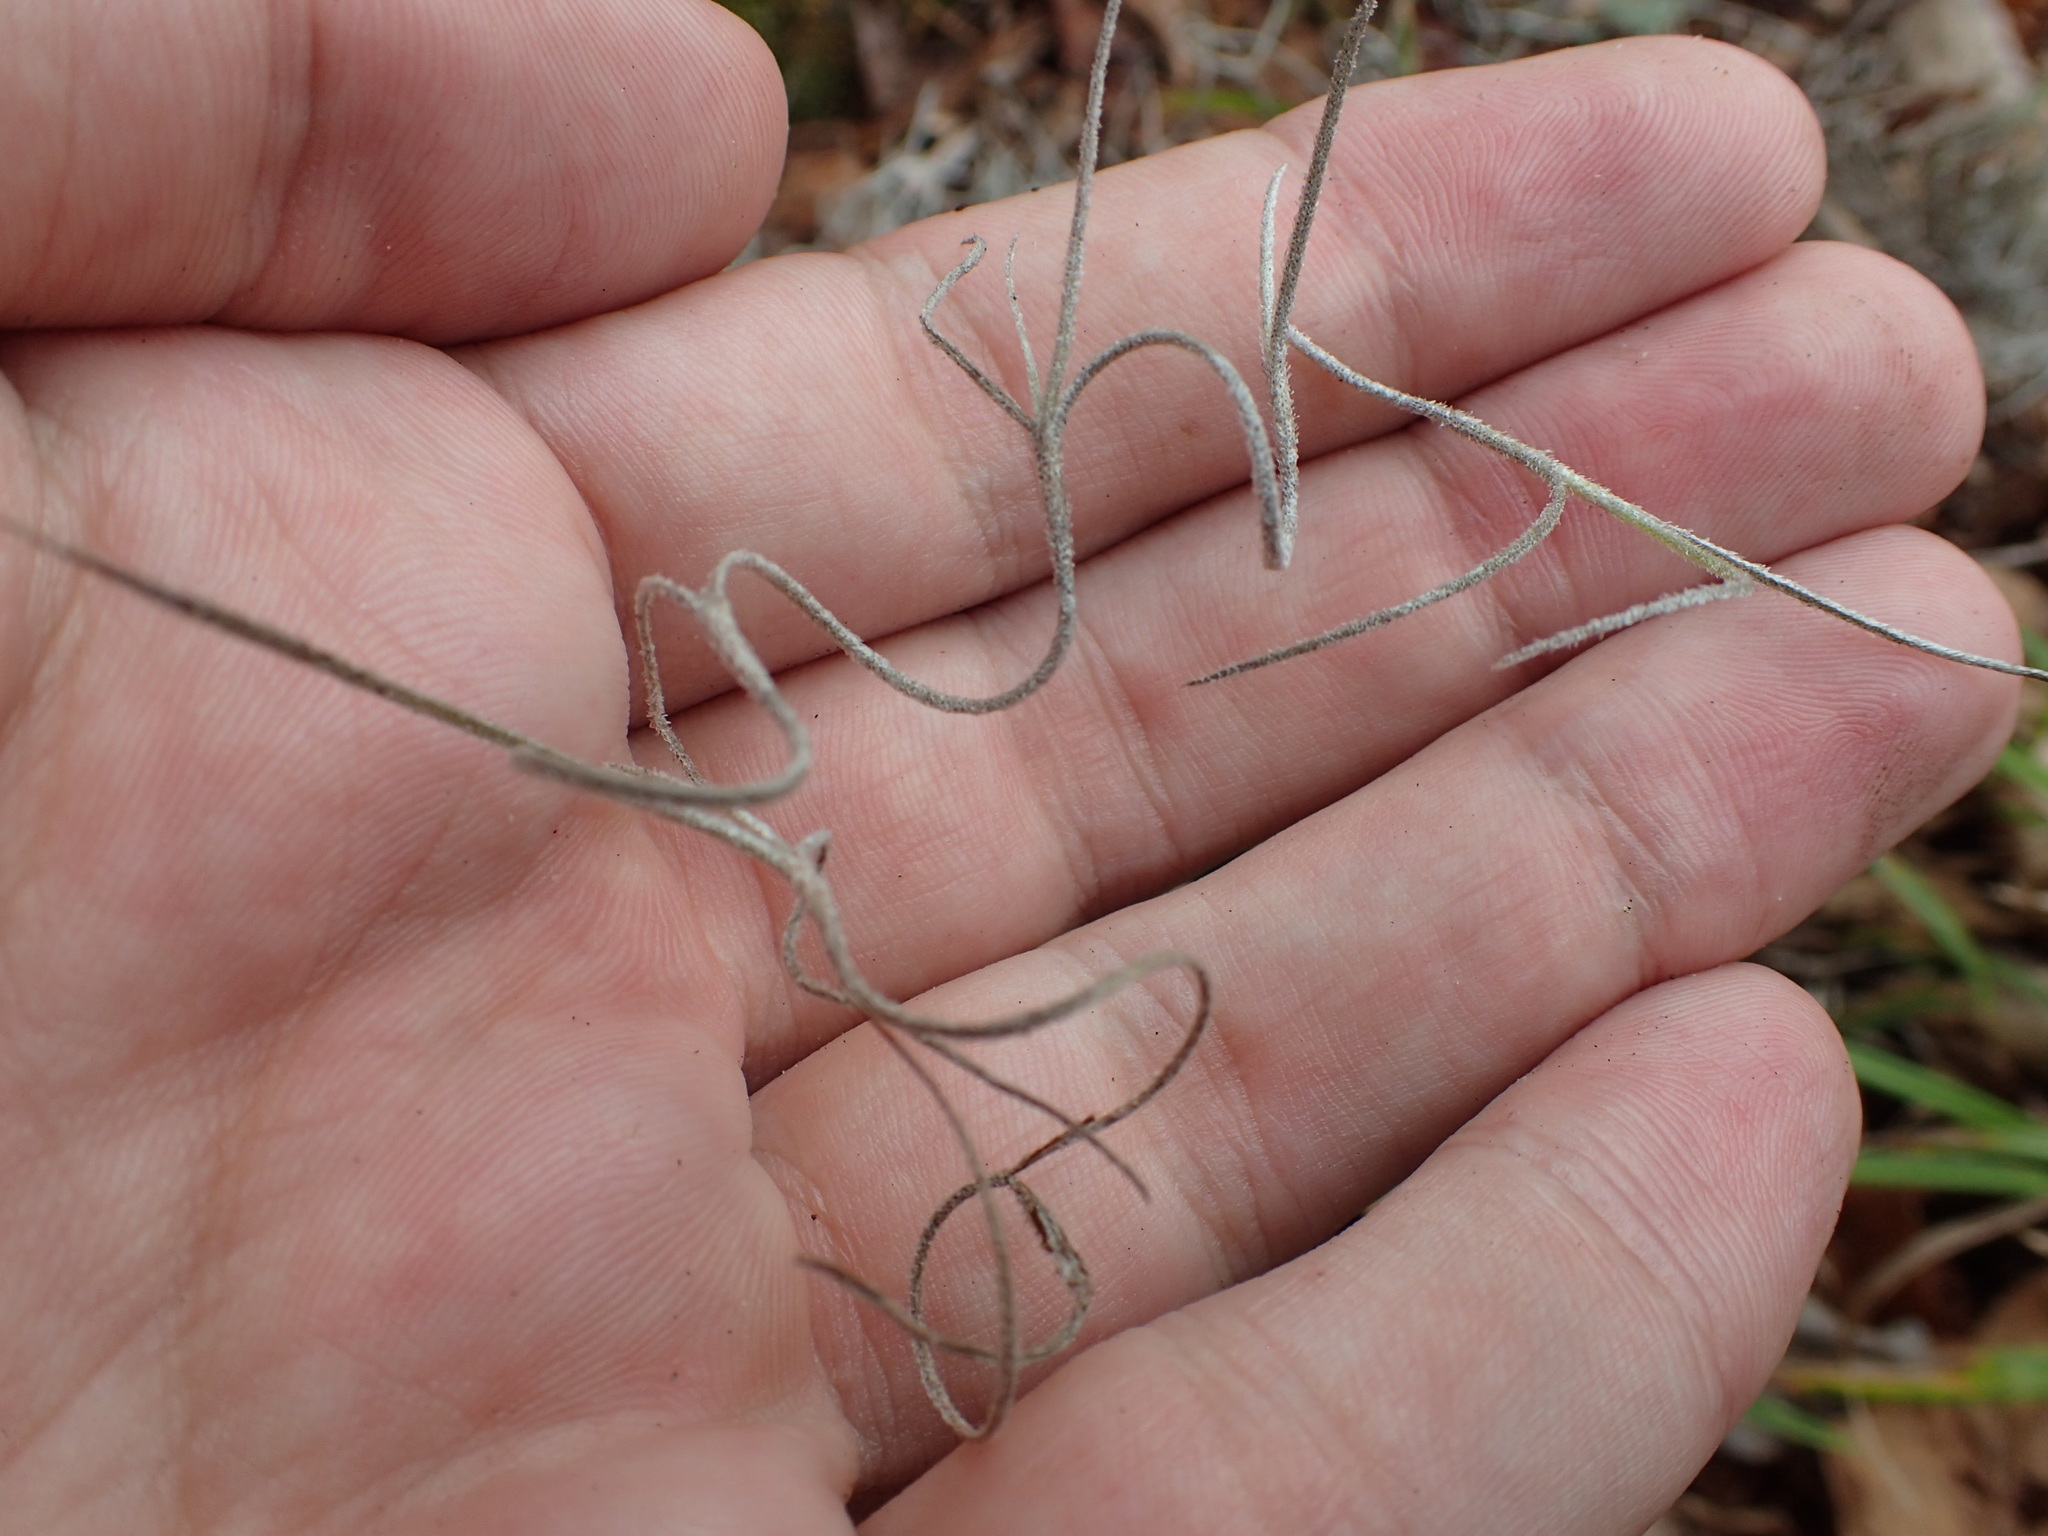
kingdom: Plantae
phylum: Tracheophyta
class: Liliopsida
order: Poales
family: Bromeliaceae
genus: Tillandsia
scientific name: Tillandsia usneoides
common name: Spanish moss
